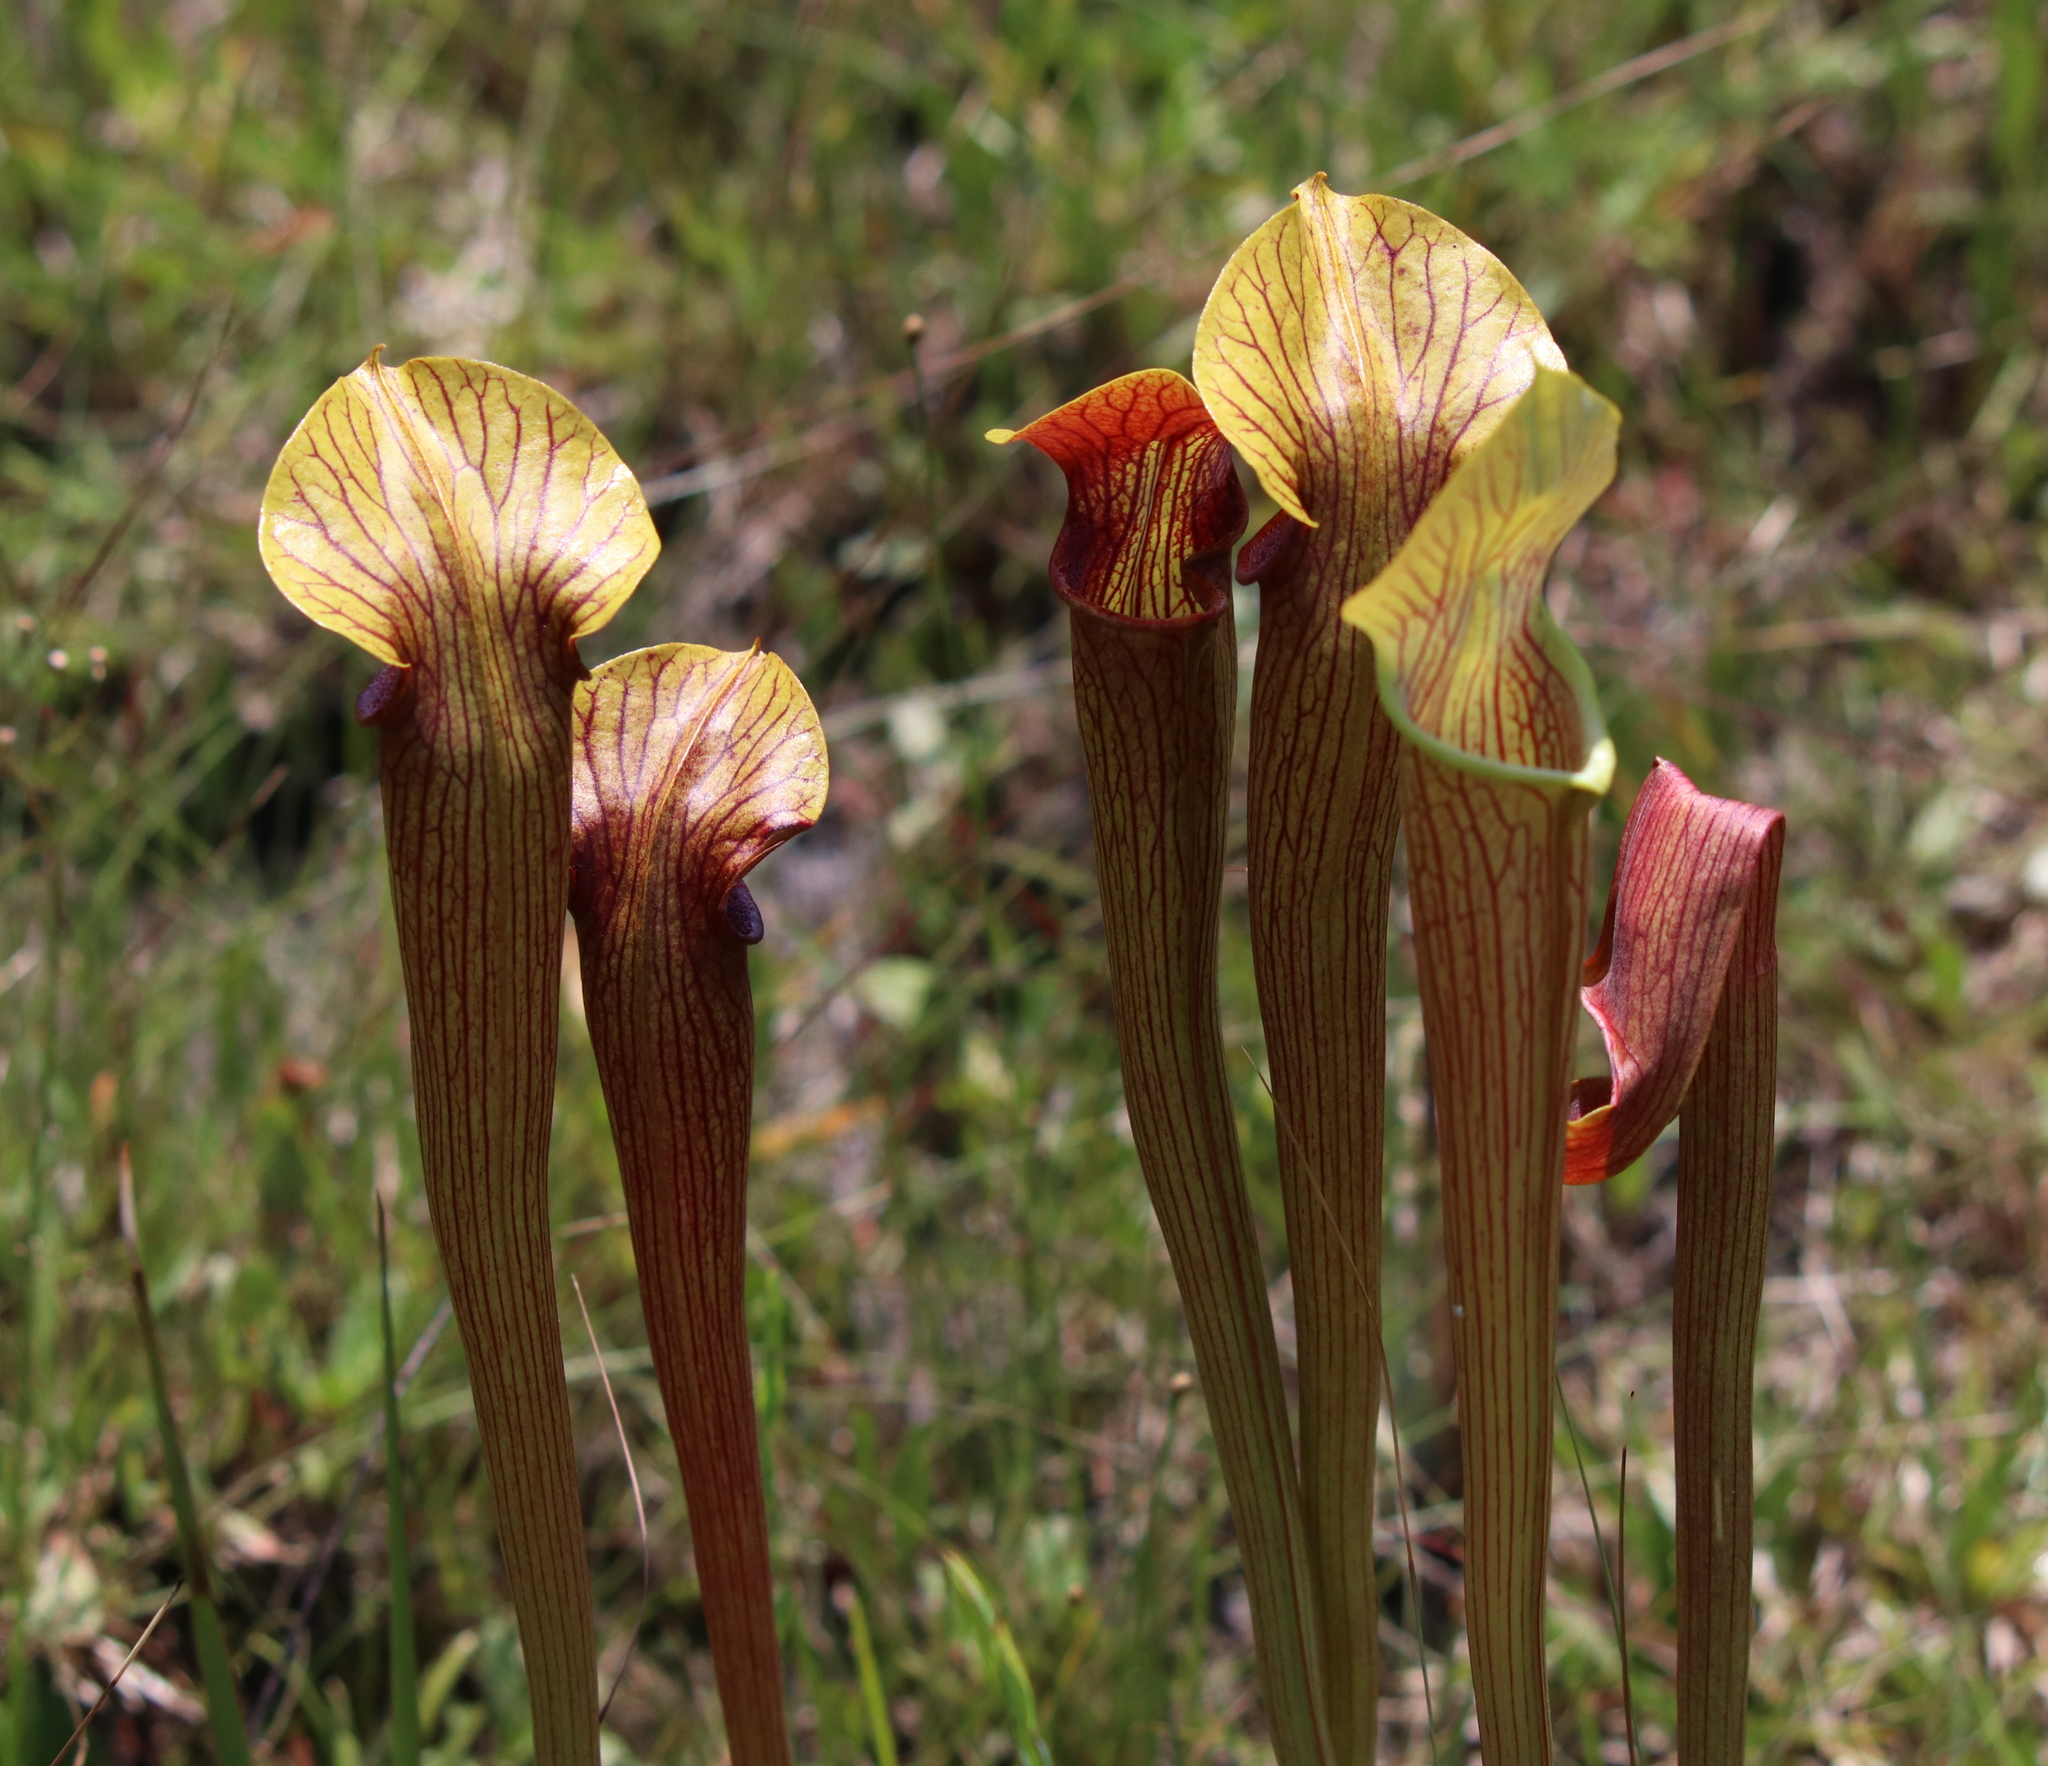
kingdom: Plantae
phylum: Tracheophyta
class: Magnoliopsida
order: Ericales
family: Sarraceniaceae
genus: Sarracenia
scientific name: Sarracenia alata
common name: Yellow trumpets
